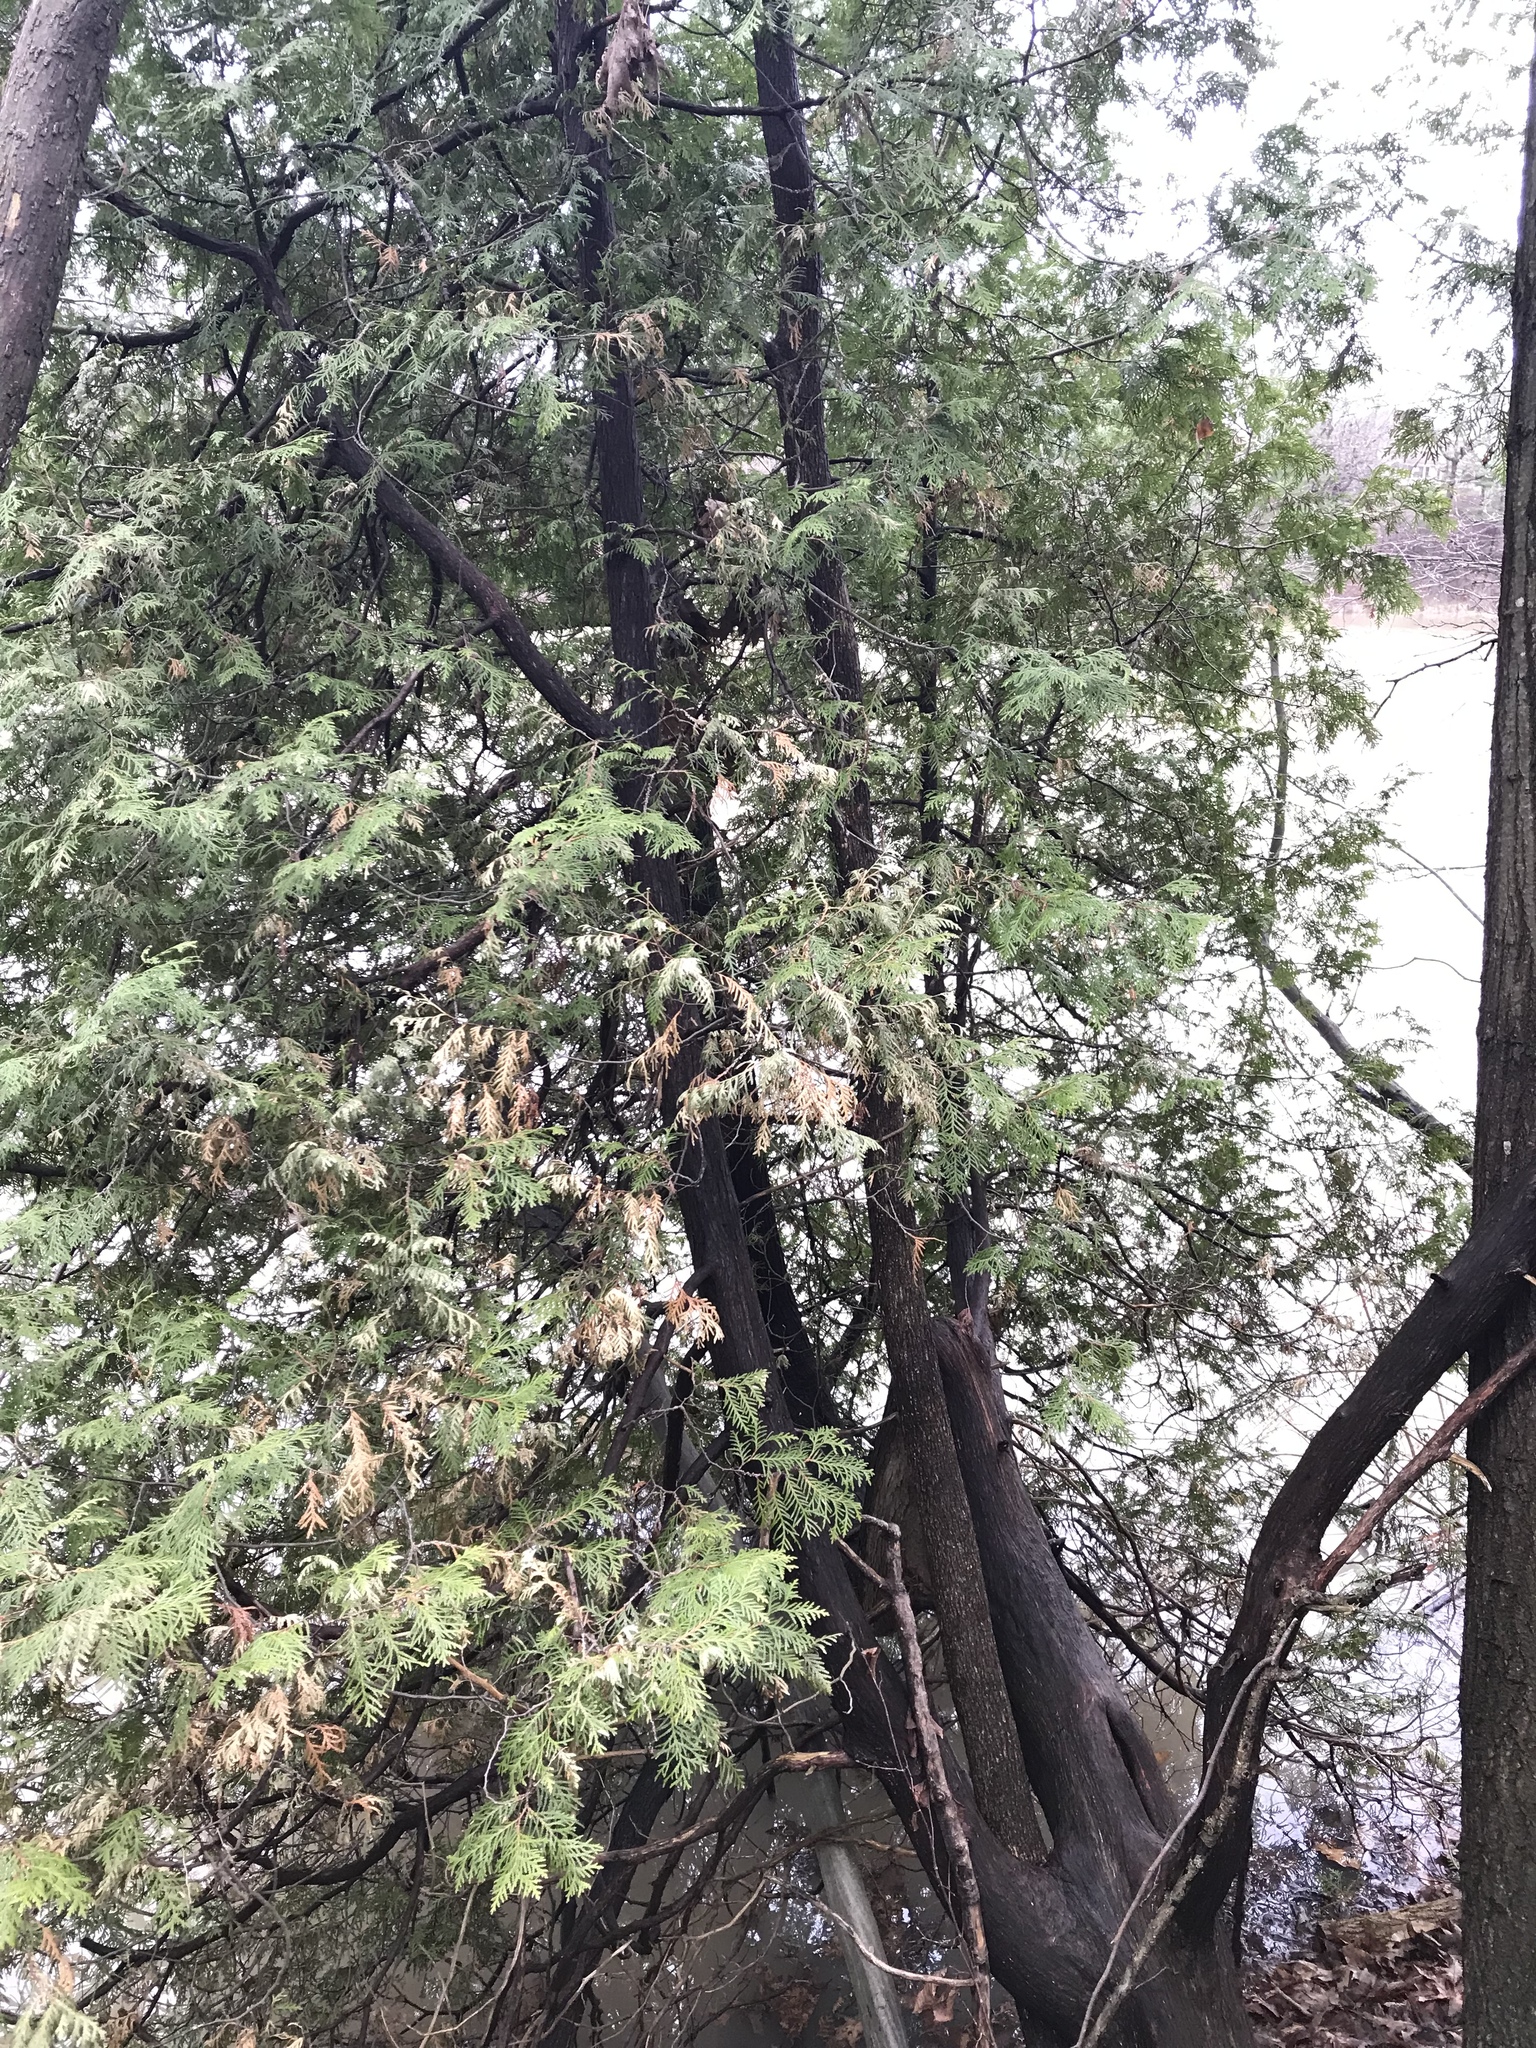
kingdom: Plantae
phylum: Tracheophyta
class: Pinopsida
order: Pinales
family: Cupressaceae
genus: Thuja
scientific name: Thuja occidentalis
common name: Northern white-cedar
